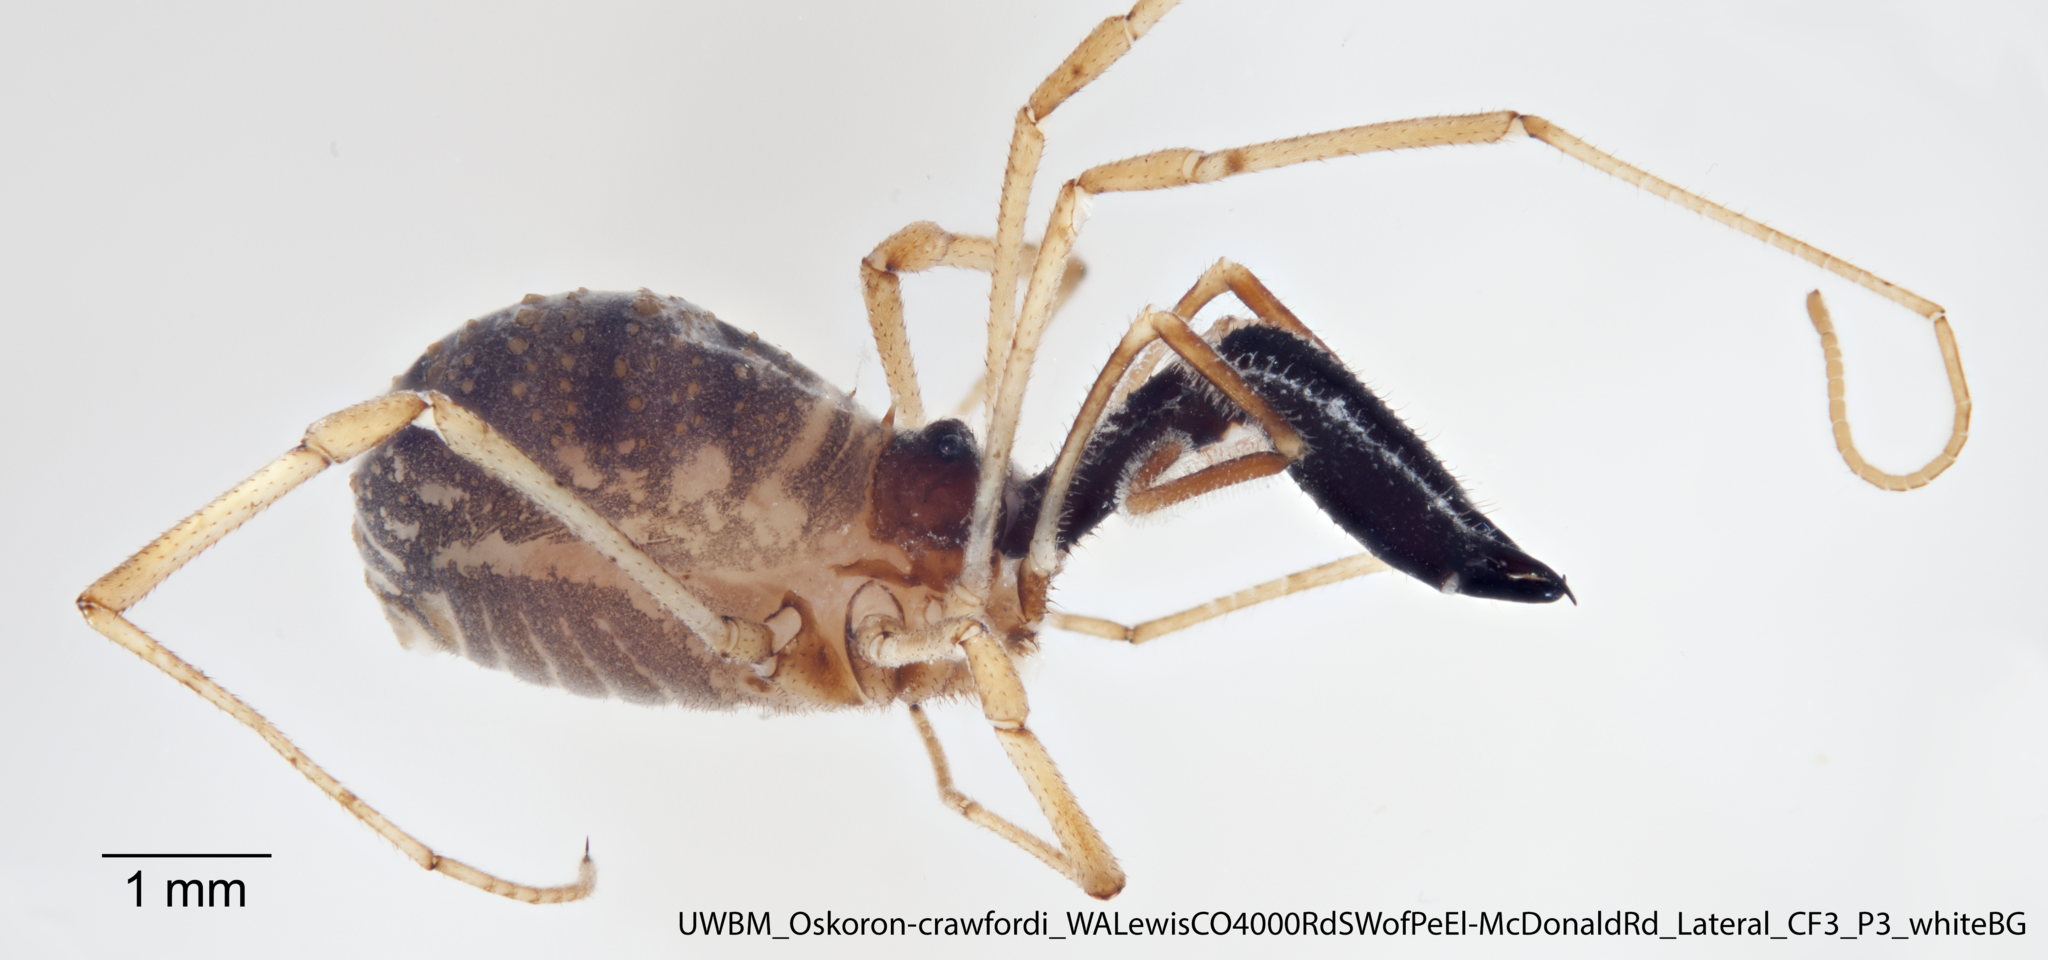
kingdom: Animalia
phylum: Arthropoda
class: Arachnida
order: Opiliones
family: Taracidae
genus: Oskoron
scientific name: Oskoron crawfordi
